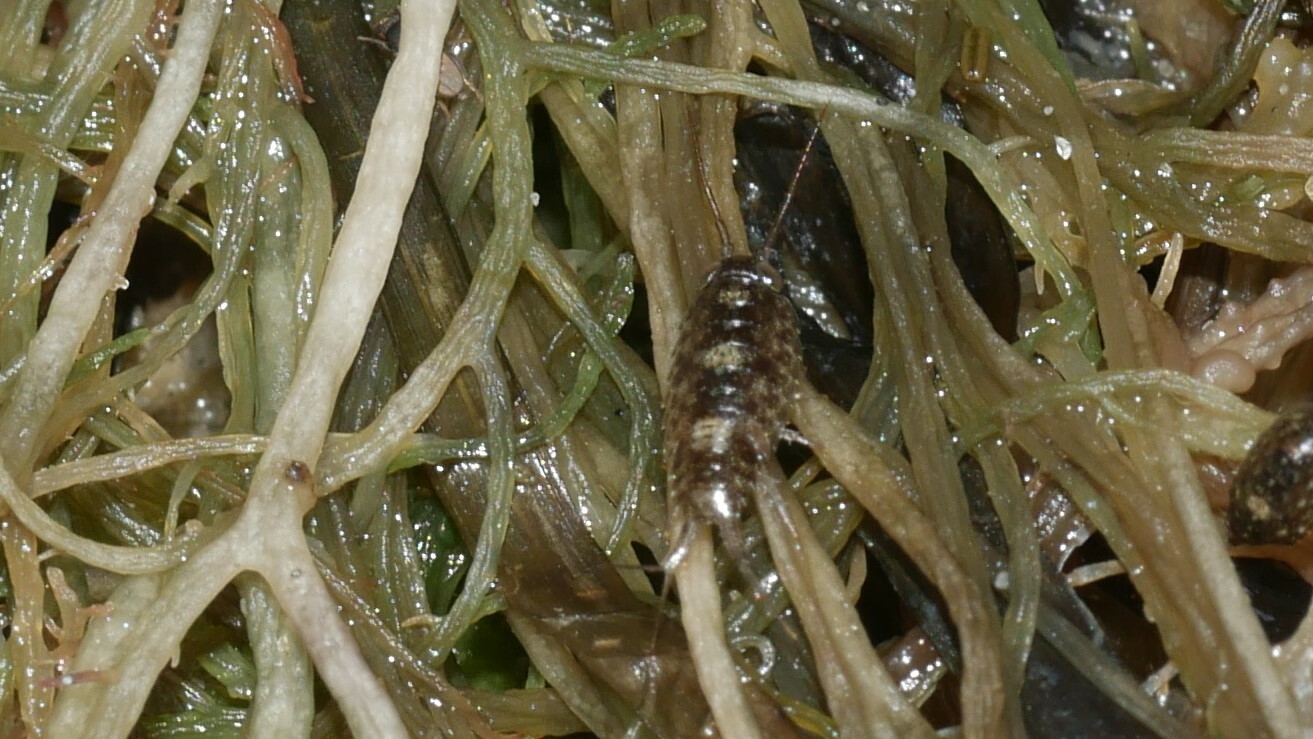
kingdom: Animalia
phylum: Arthropoda
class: Malacostraca
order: Isopoda
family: Ligiidae
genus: Ligia
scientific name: Ligia exotica
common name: Wharf roach
